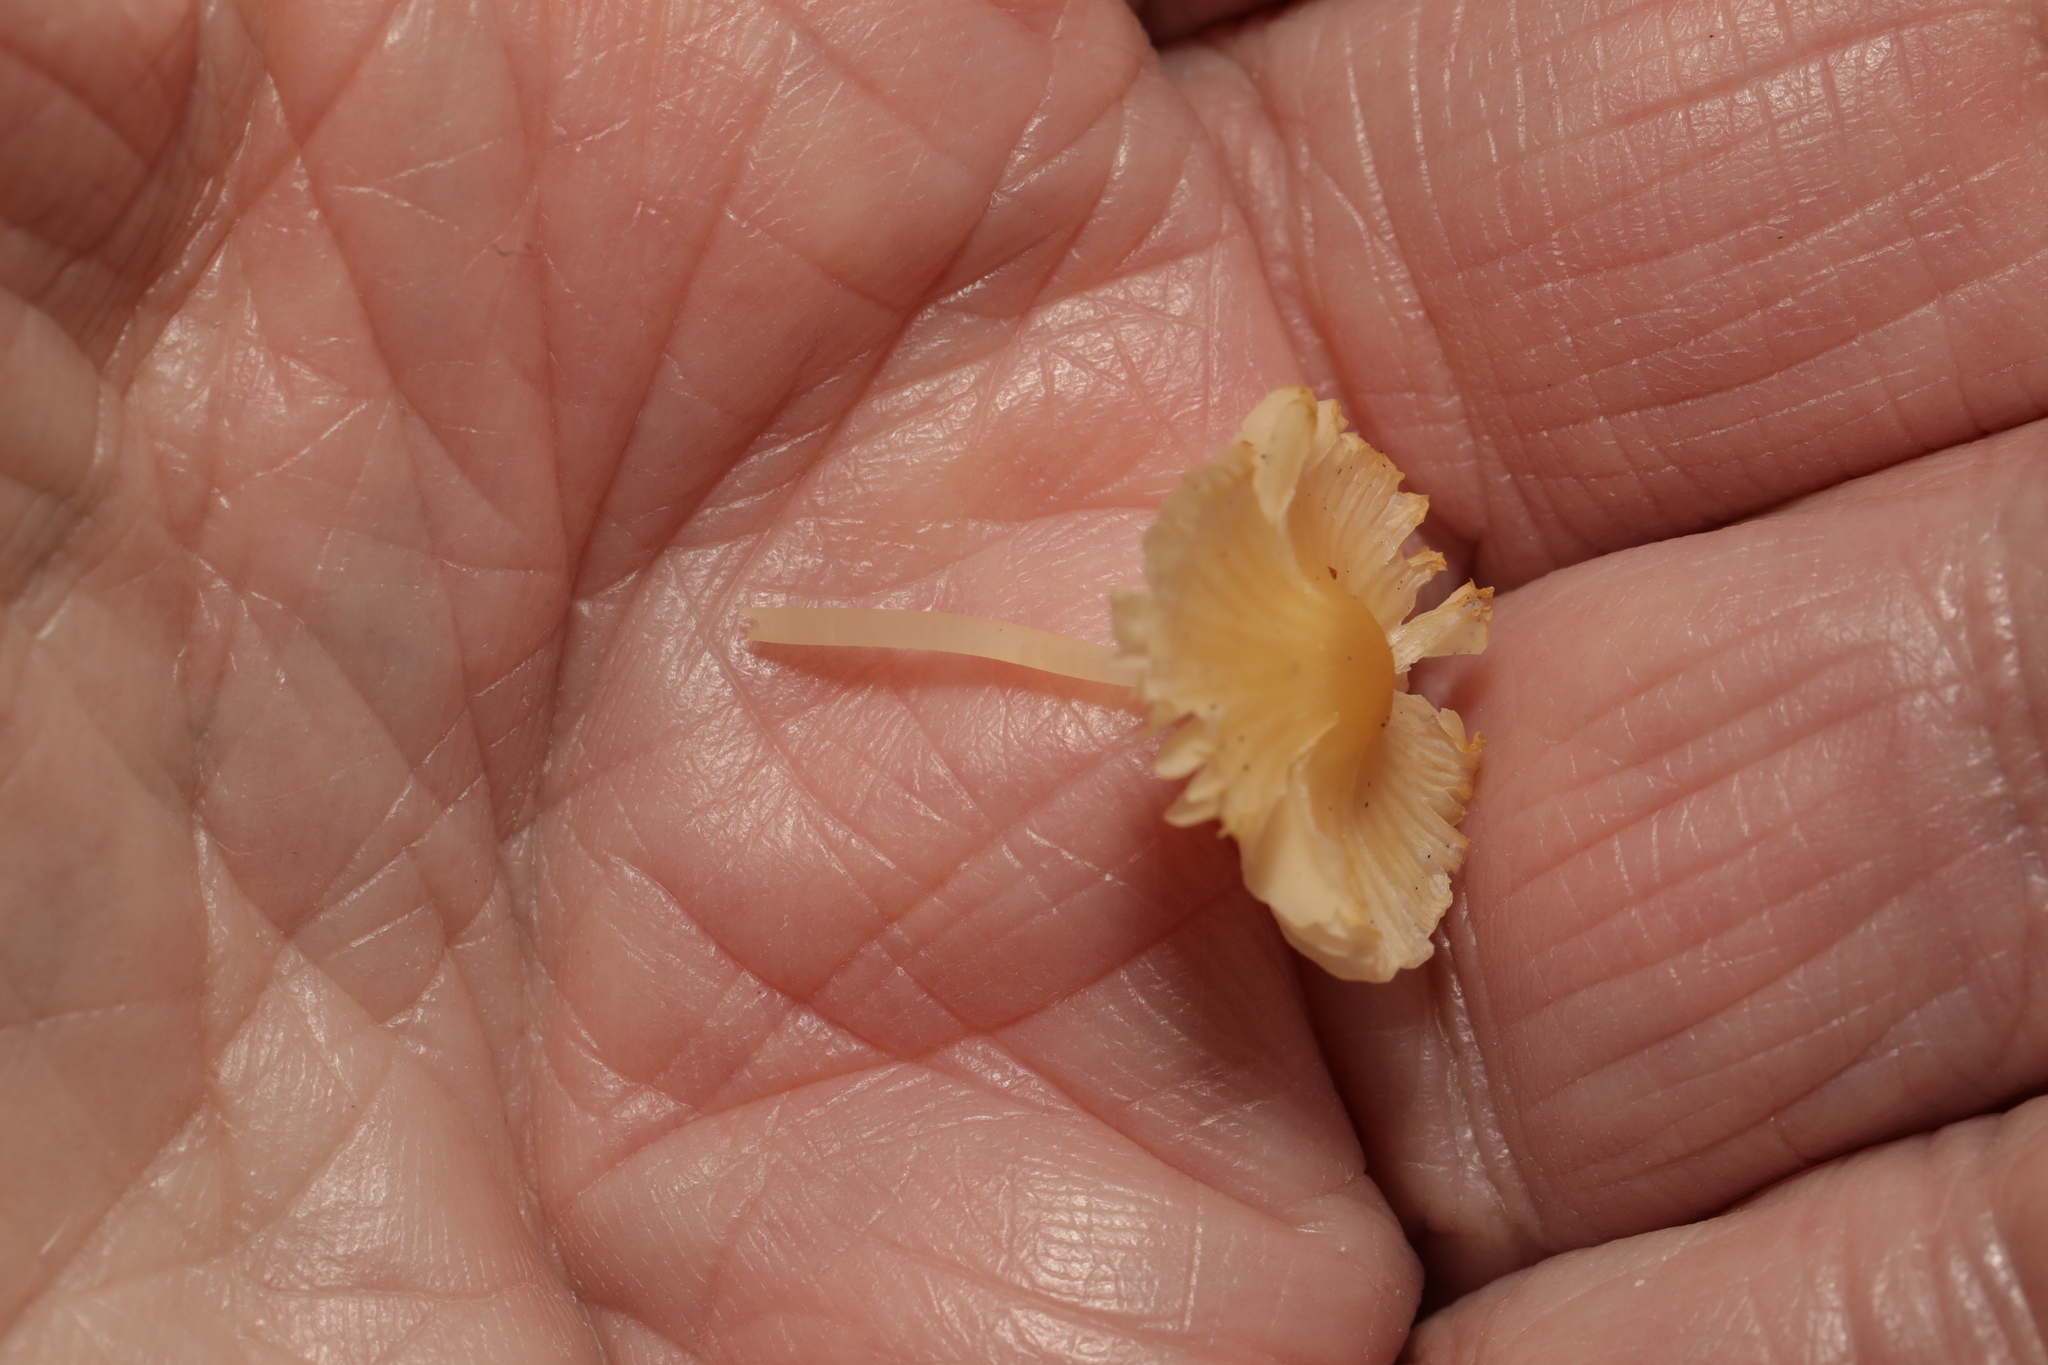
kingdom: Fungi
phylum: Basidiomycota
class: Agaricomycetes
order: Agaricales
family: Mycenaceae
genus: Atheniella
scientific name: Atheniella flavoalba
